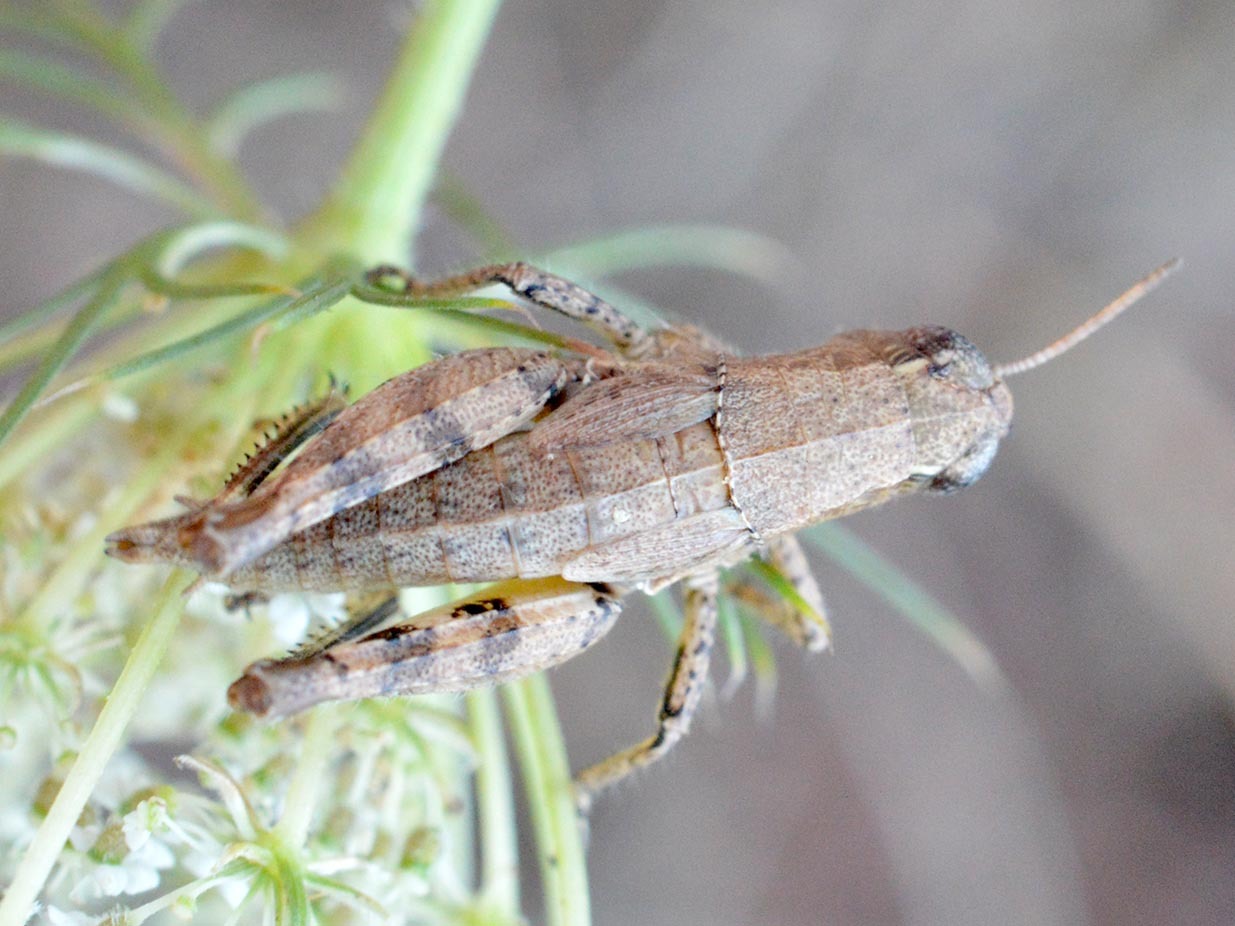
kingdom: Animalia
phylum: Arthropoda
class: Insecta
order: Orthoptera
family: Acrididae
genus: Pezotettix
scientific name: Pezotettix giornae
